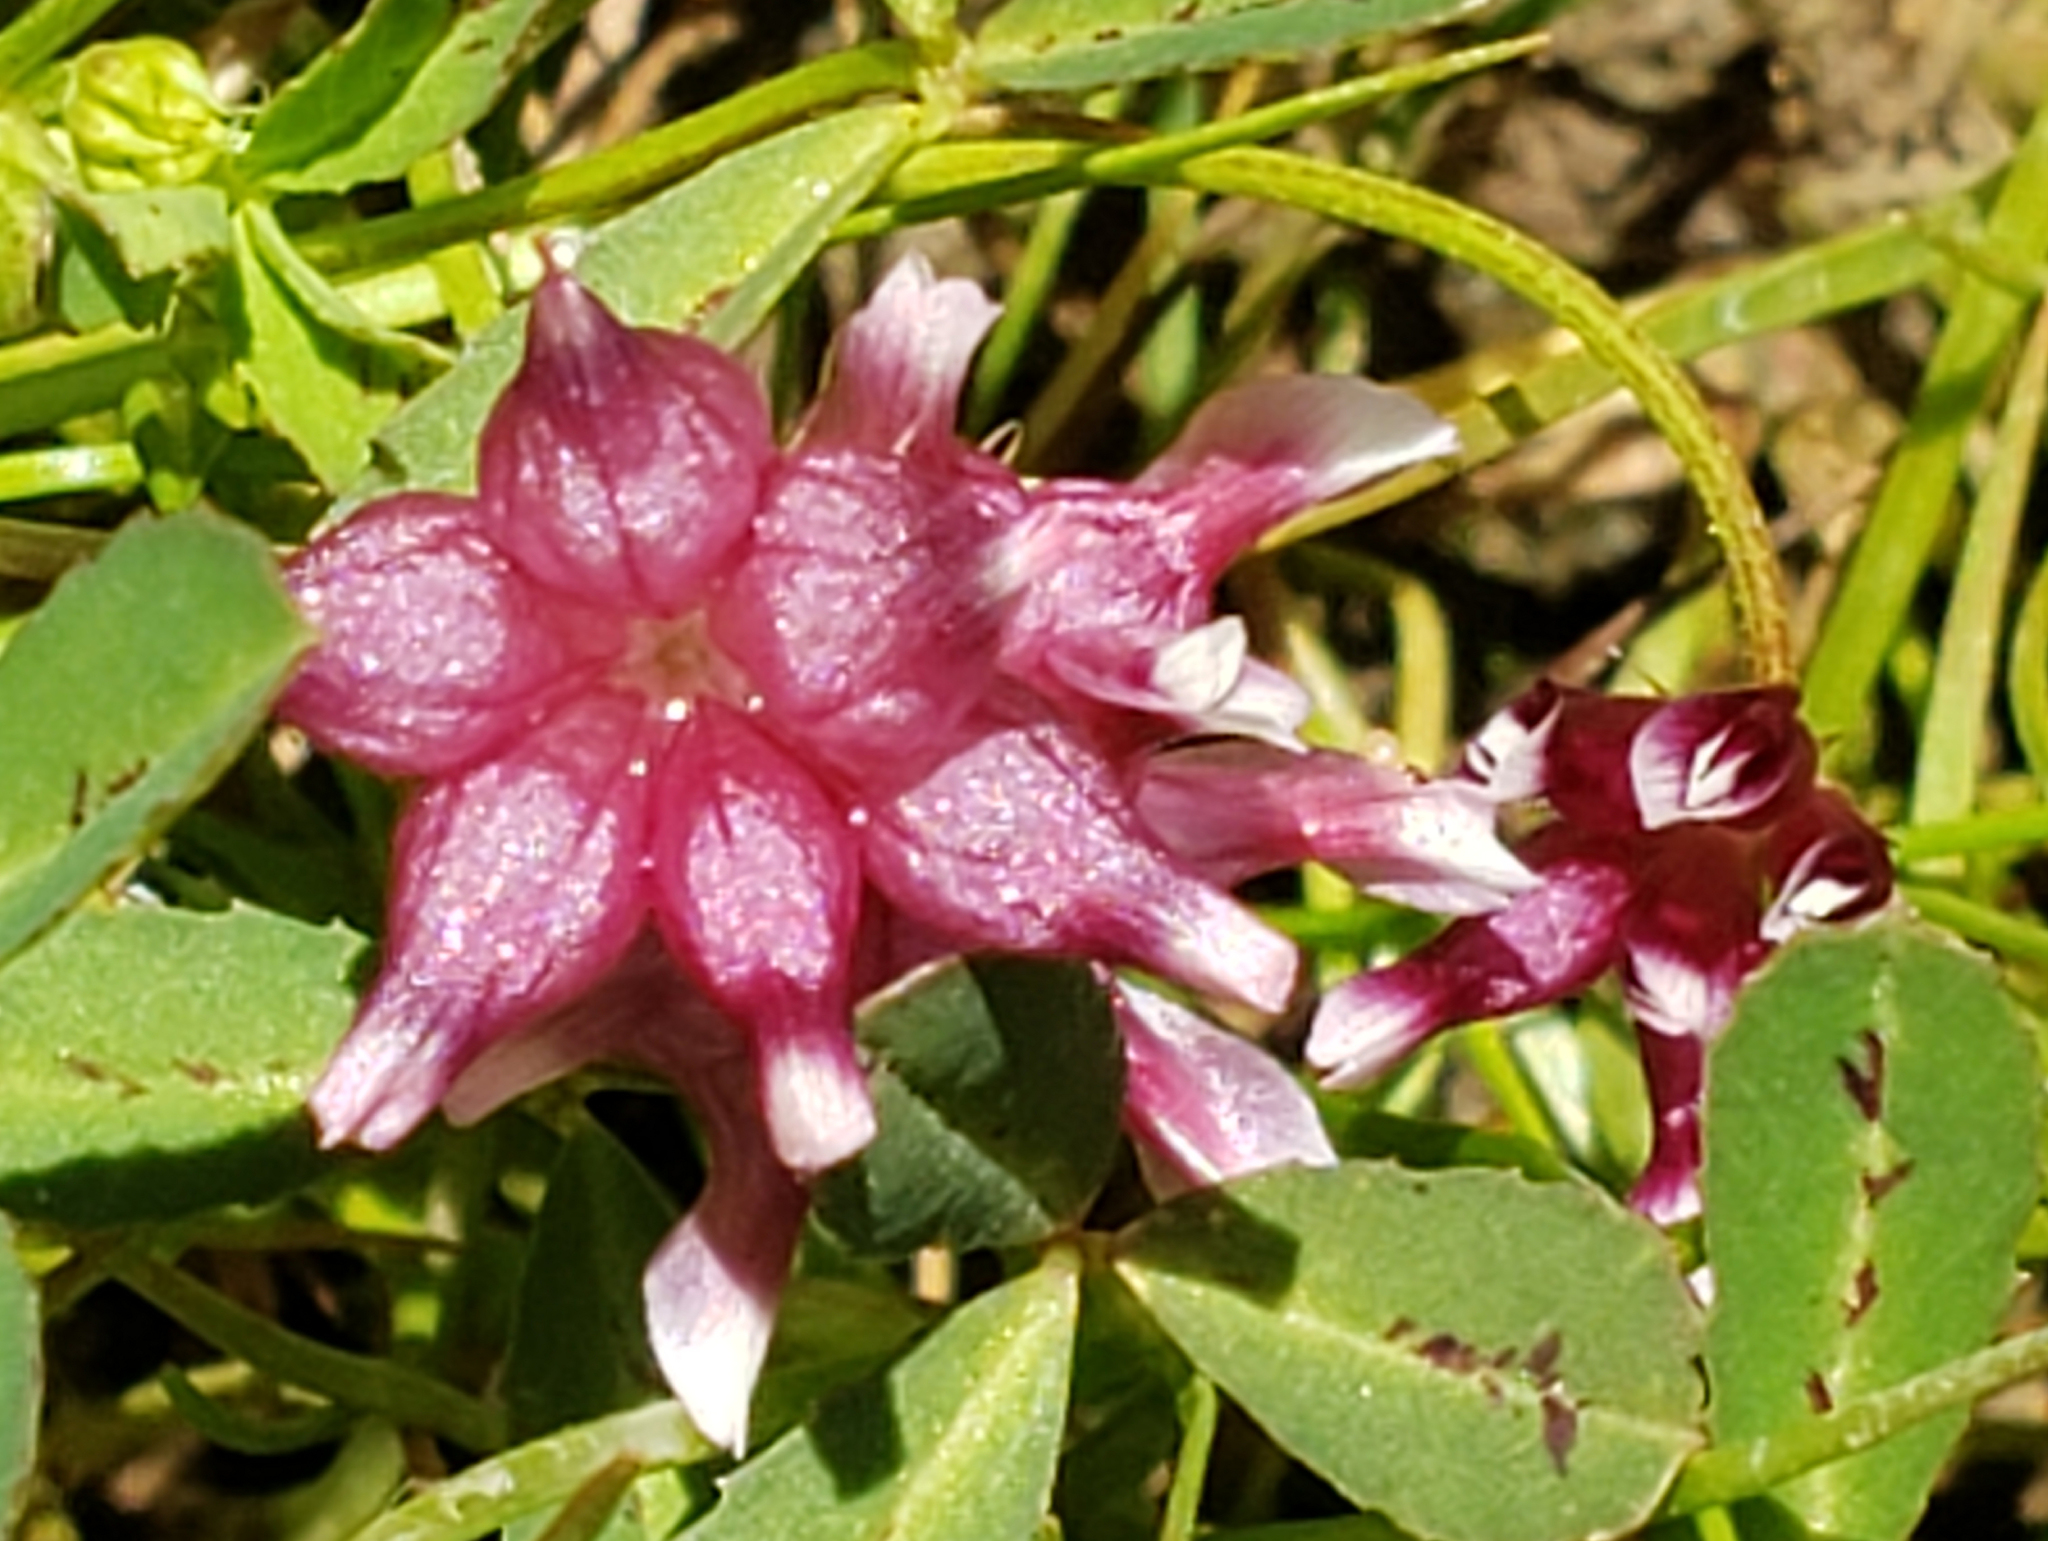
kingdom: Plantae
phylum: Tracheophyta
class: Magnoliopsida
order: Fabales
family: Fabaceae
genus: Trifolium
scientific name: Trifolium depauperatum
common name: Poverty clover
